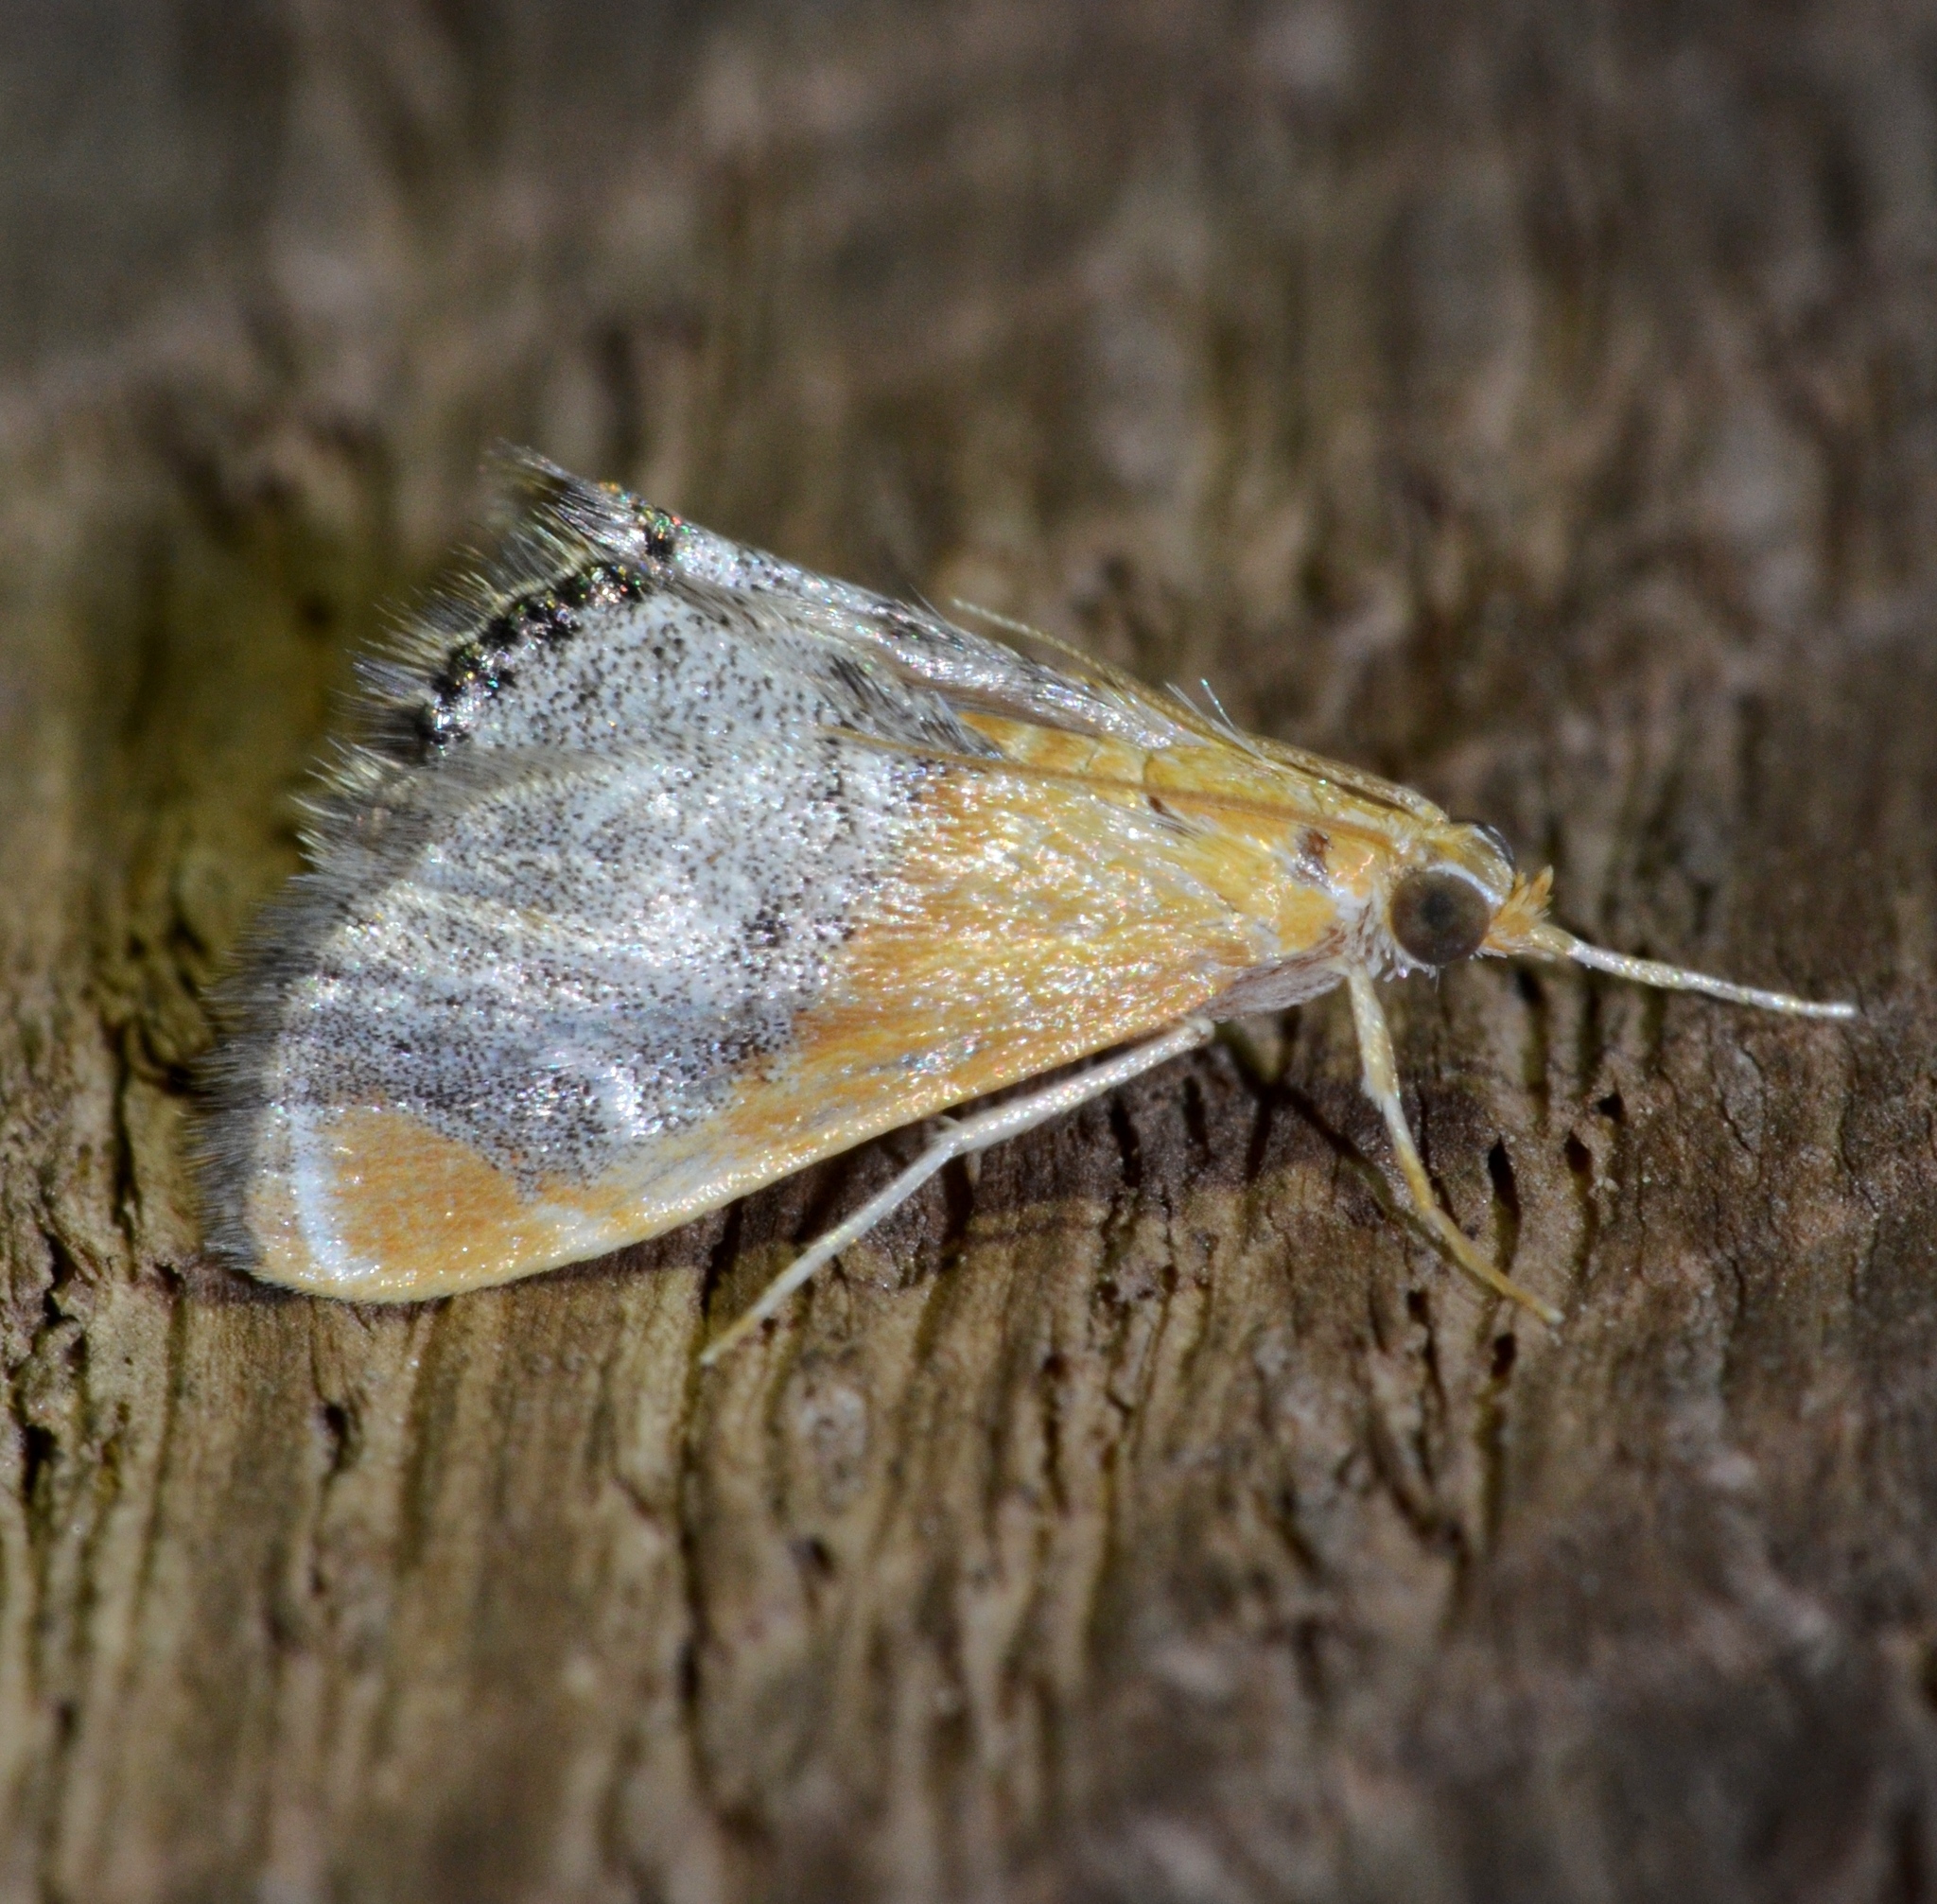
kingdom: Animalia
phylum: Arthropoda
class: Insecta
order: Lepidoptera
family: Crambidae
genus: Chalcoela
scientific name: Chalcoela iphitalis
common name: Sooty-winged chalcoela moth
